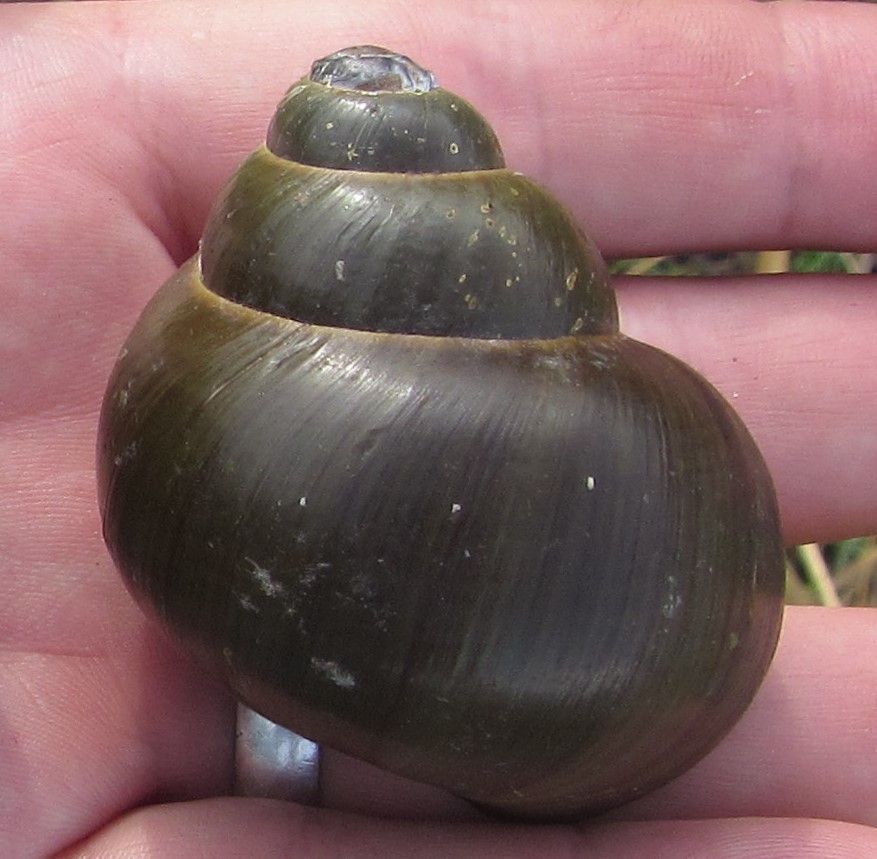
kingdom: Animalia
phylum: Mollusca
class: Gastropoda
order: Architaenioglossa
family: Ampullariidae
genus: Lanistes
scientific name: Lanistes ovum
